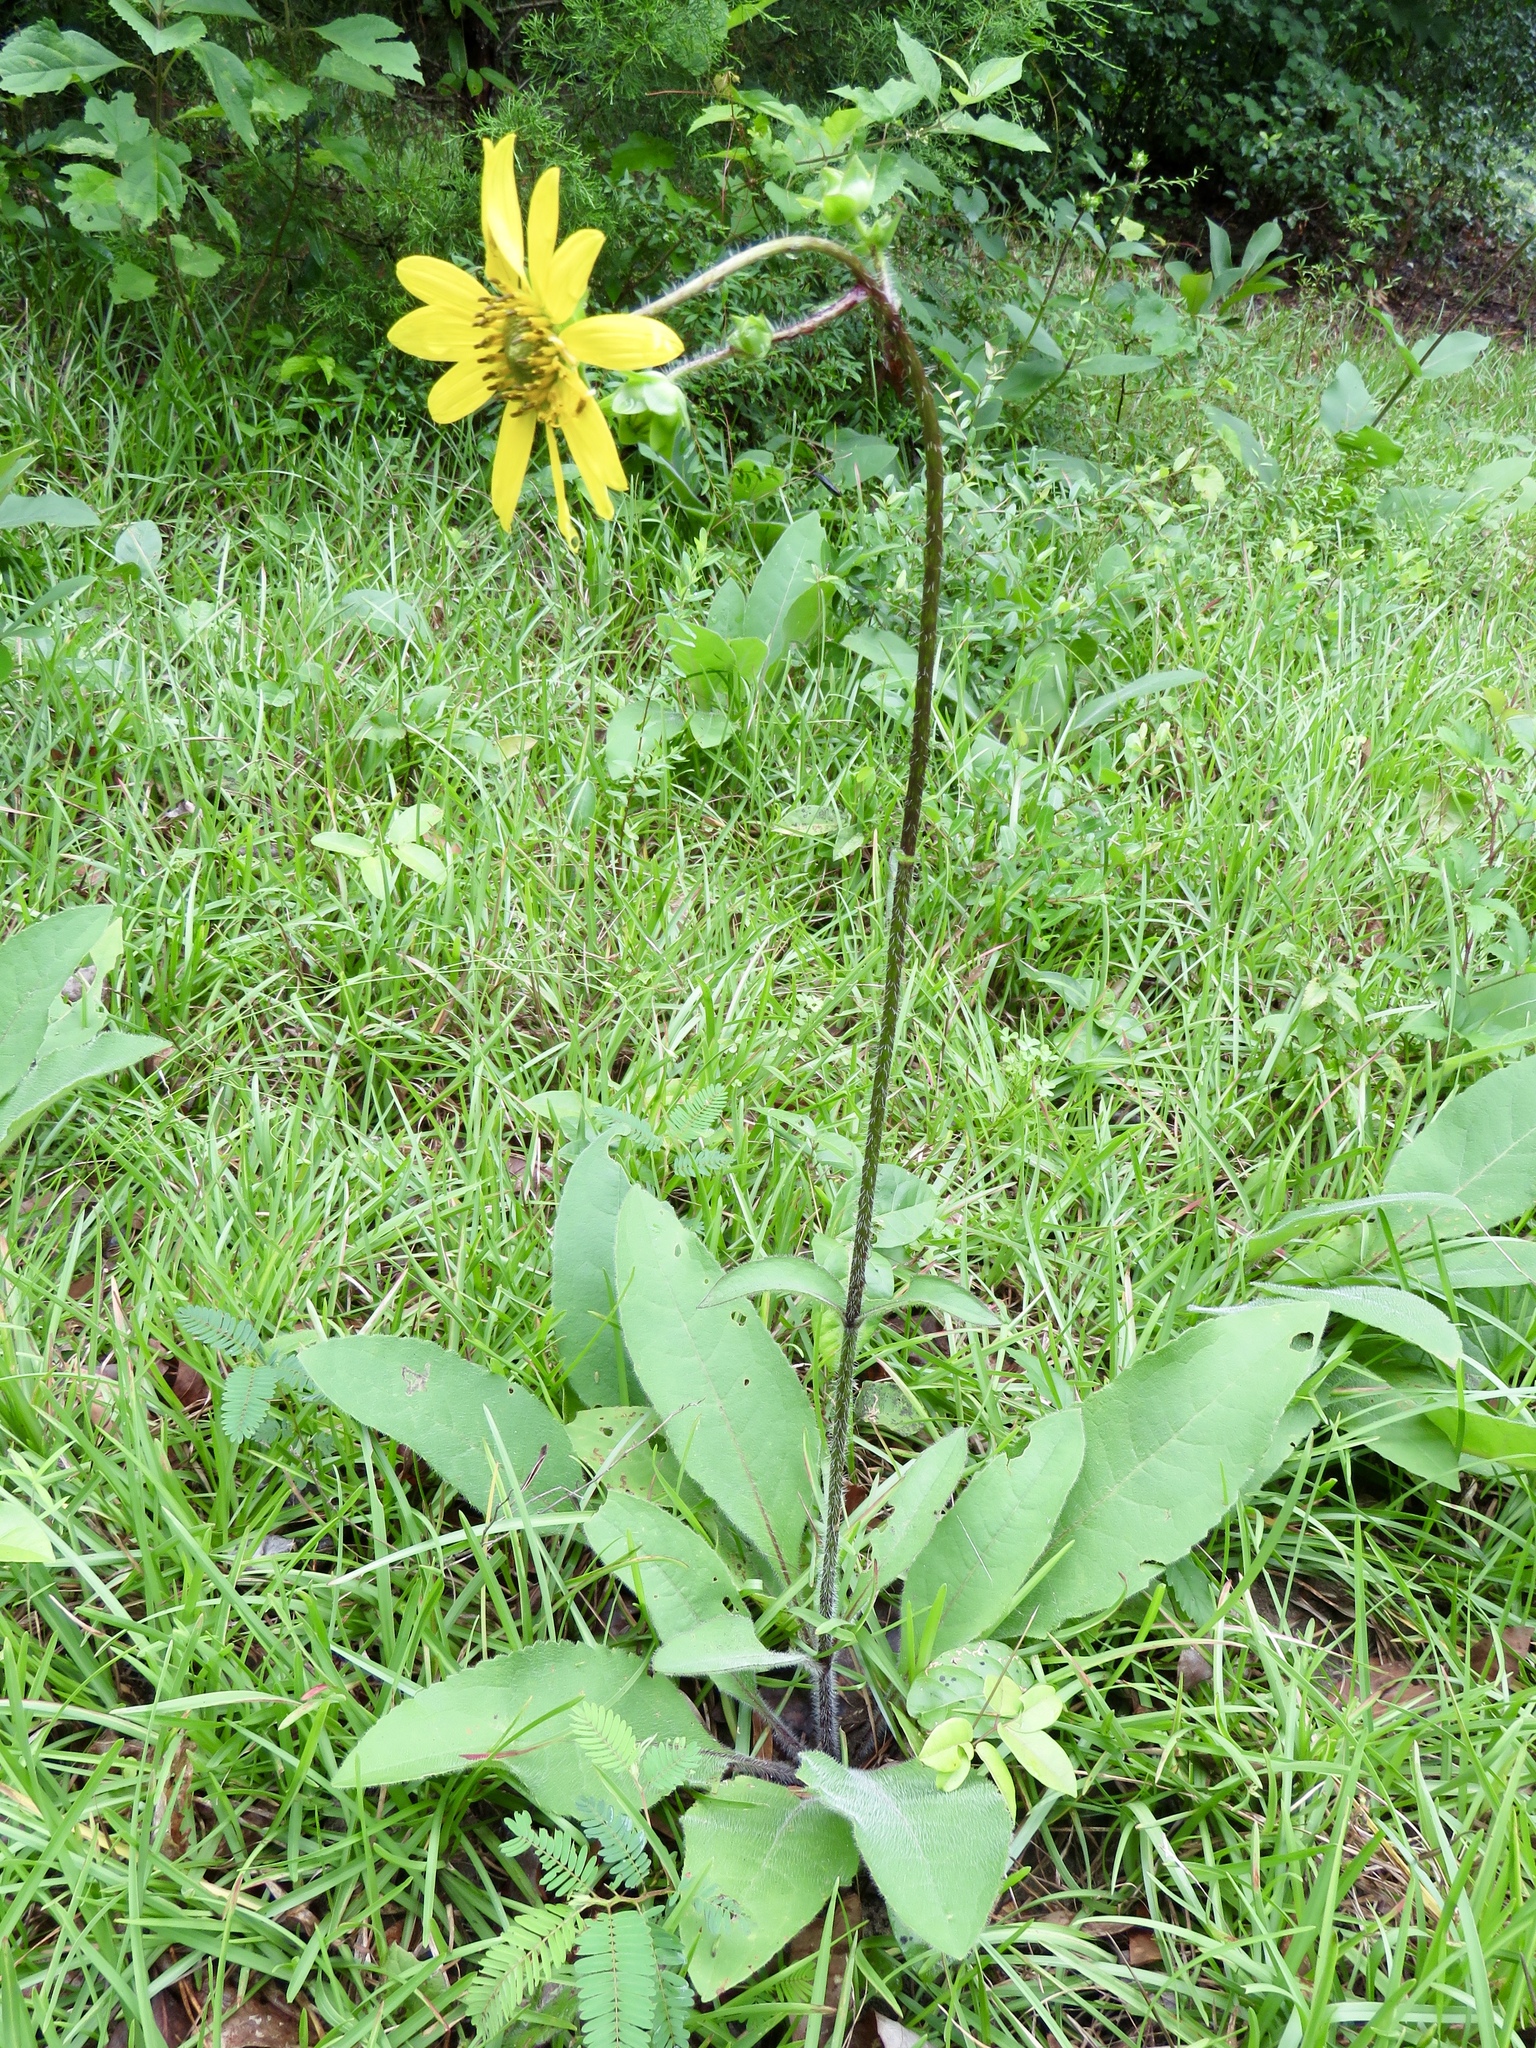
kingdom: Plantae
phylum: Tracheophyta
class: Magnoliopsida
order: Asterales
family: Asteraceae
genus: Silphium
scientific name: Silphium radula
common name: Roughleaf rosinweed
